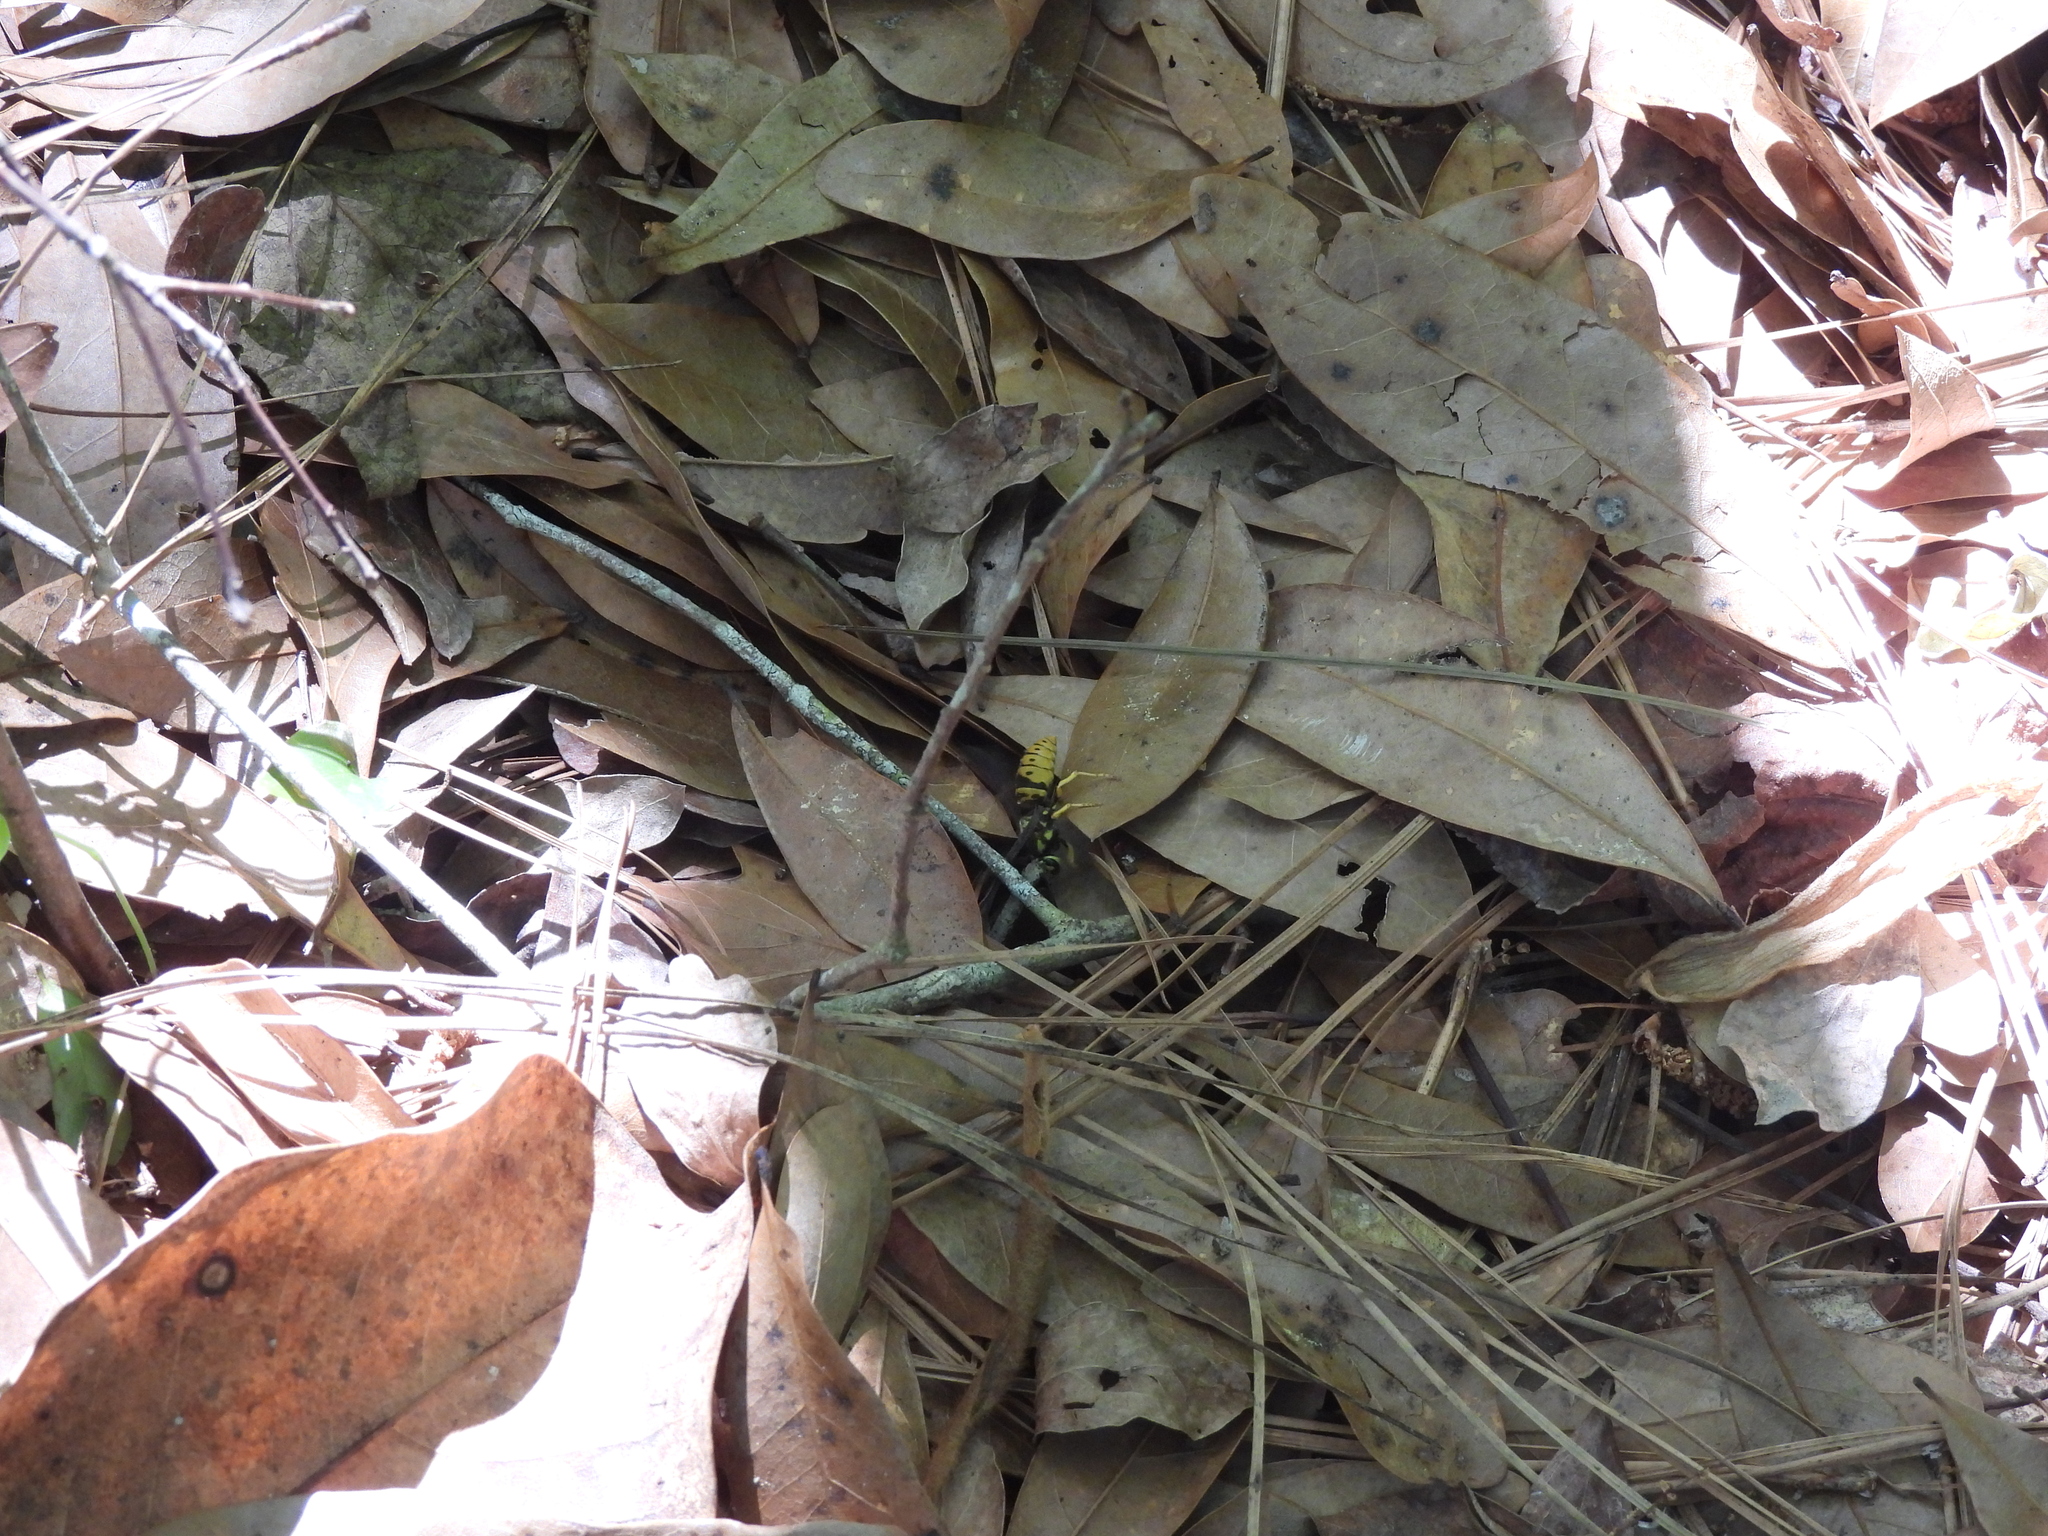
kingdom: Animalia
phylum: Arthropoda
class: Insecta
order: Hymenoptera
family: Vespidae
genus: Vespula
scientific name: Vespula maculifrons
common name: Eastern yellowjacket
